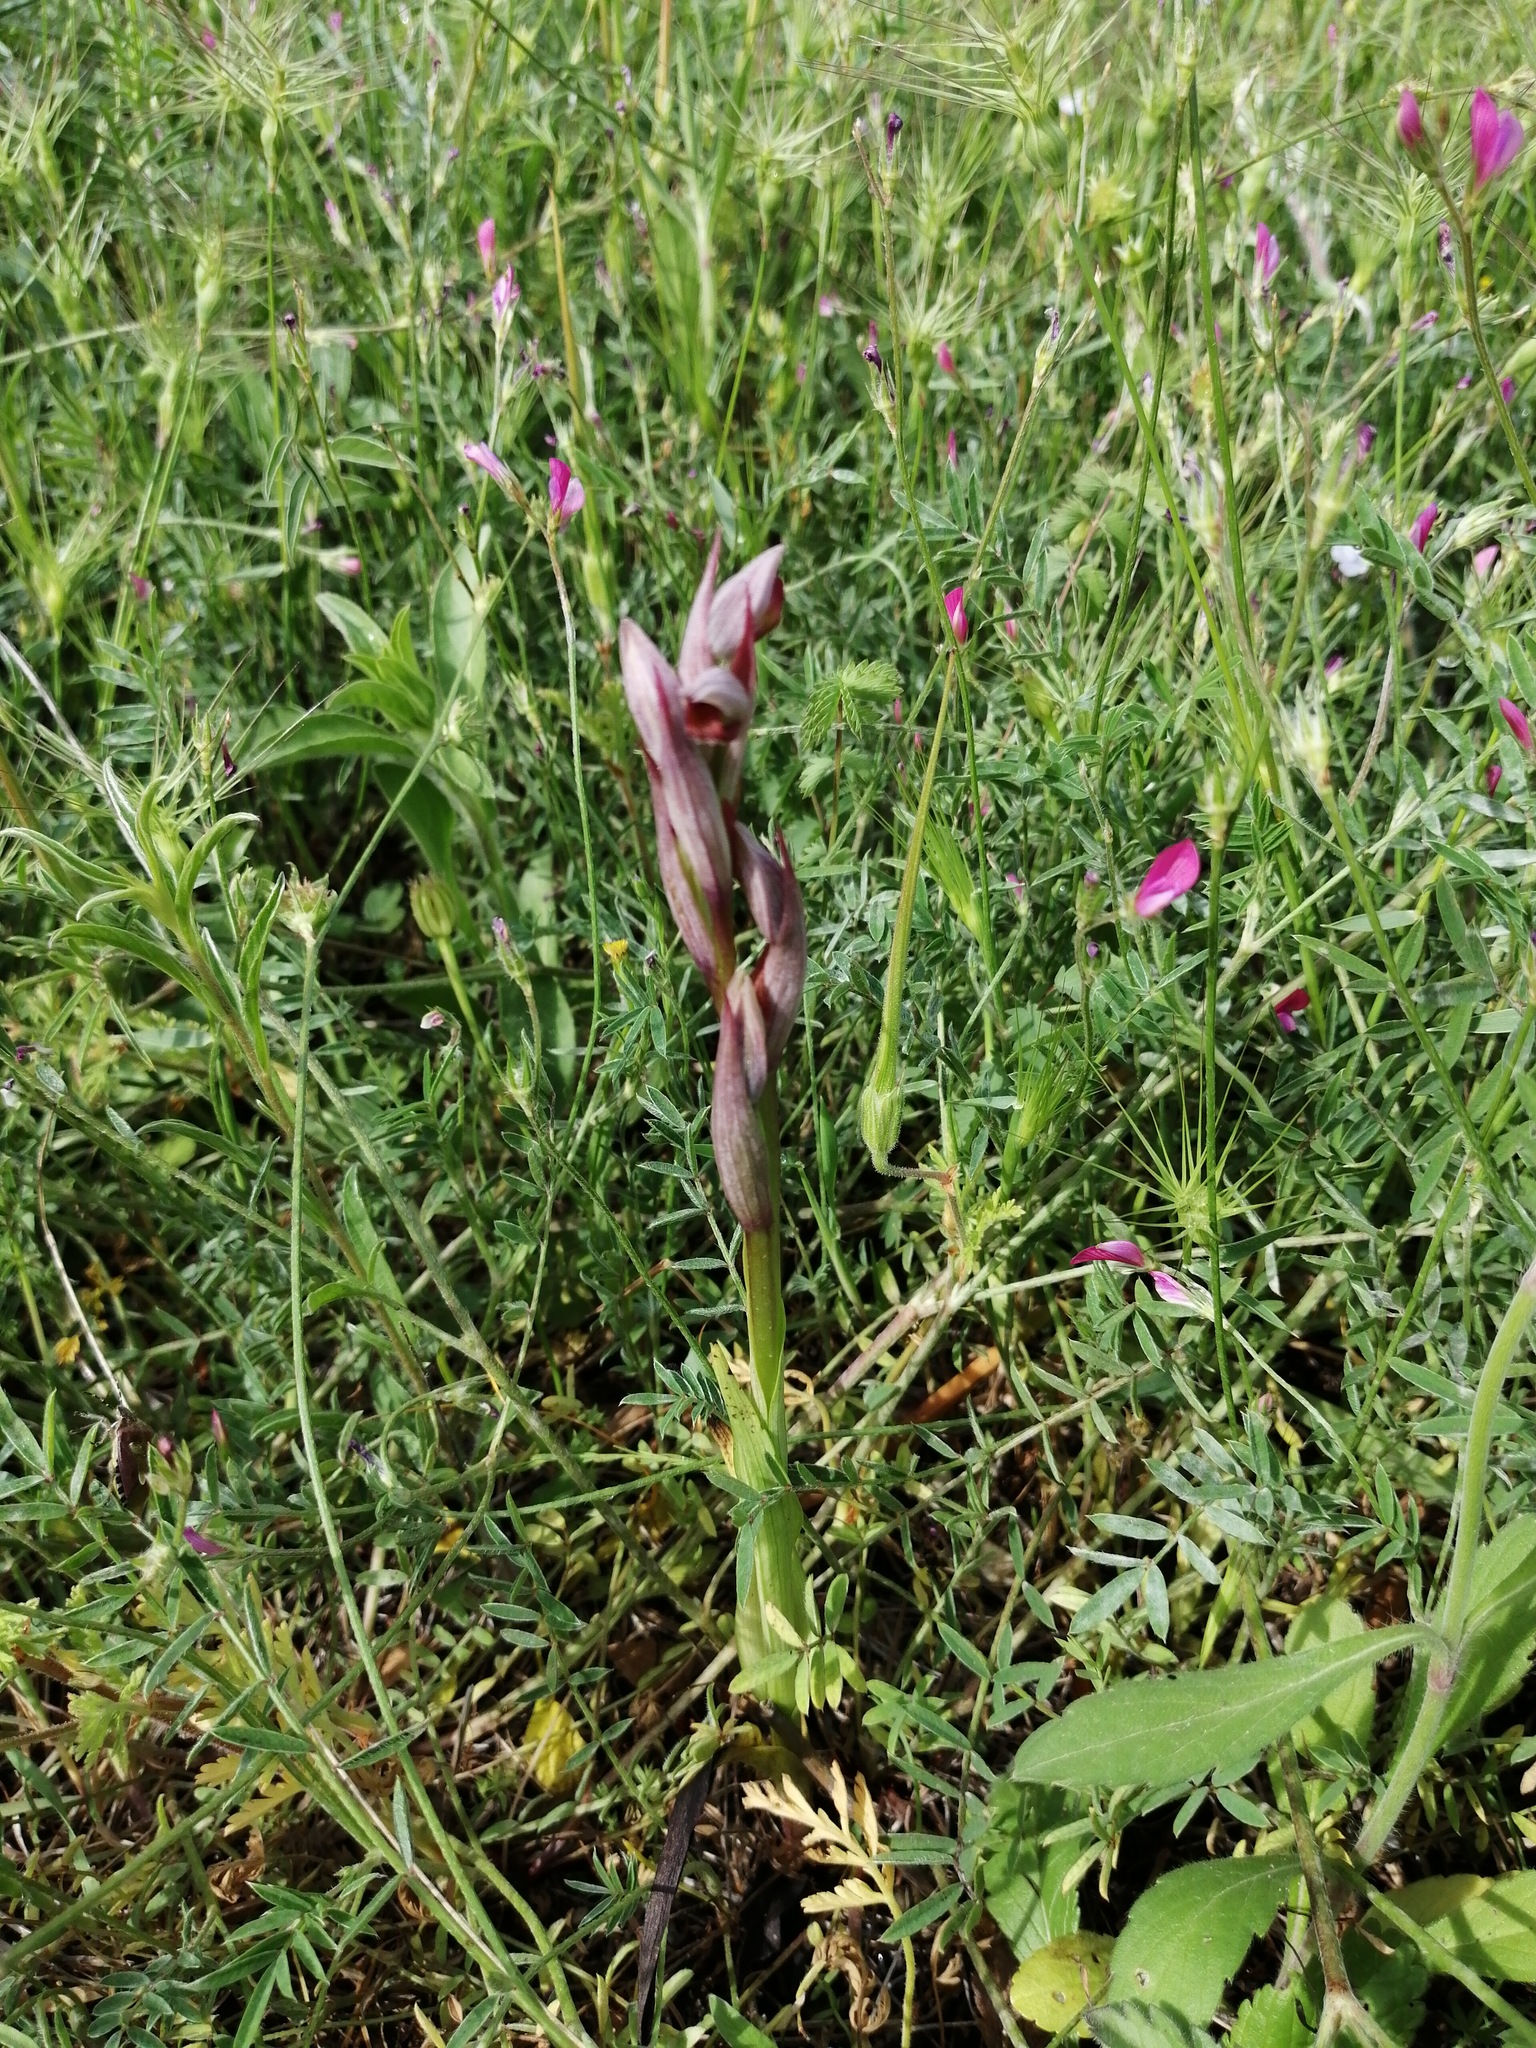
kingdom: Plantae
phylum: Tracheophyta
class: Liliopsida
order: Asparagales
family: Orchidaceae
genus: Serapias
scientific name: Serapias parviflora
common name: Small-flowered tongue-orchid
